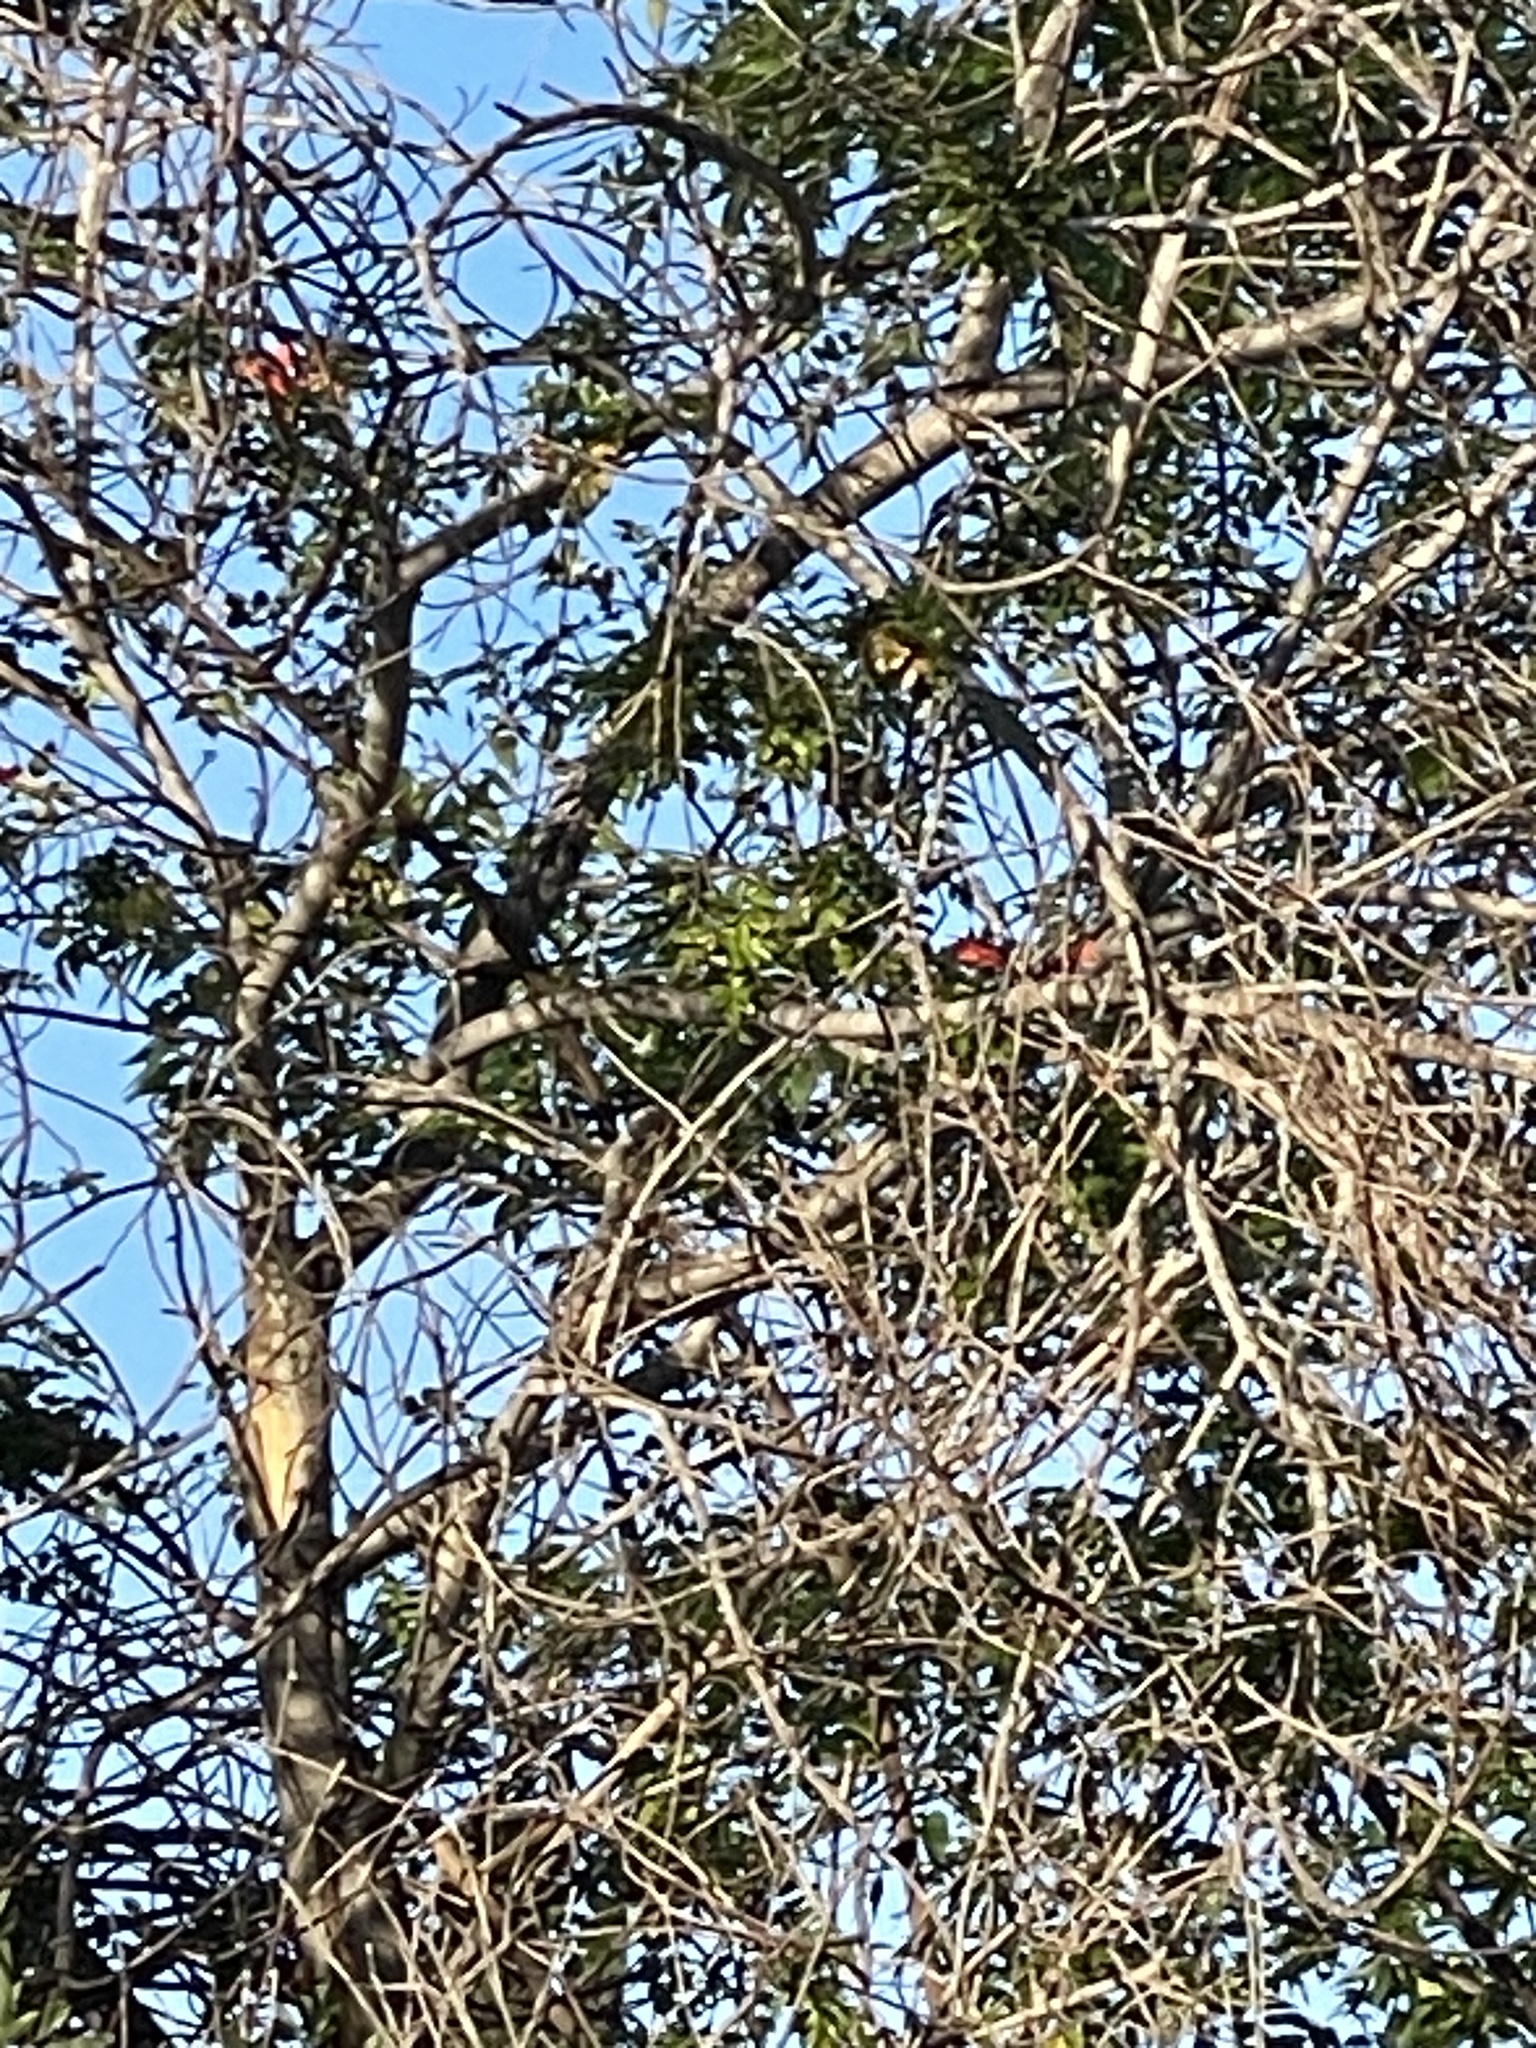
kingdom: Animalia
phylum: Chordata
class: Aves
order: Passeriformes
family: Paridae
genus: Baeolophus
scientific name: Baeolophus inornatus
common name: Oak titmouse
